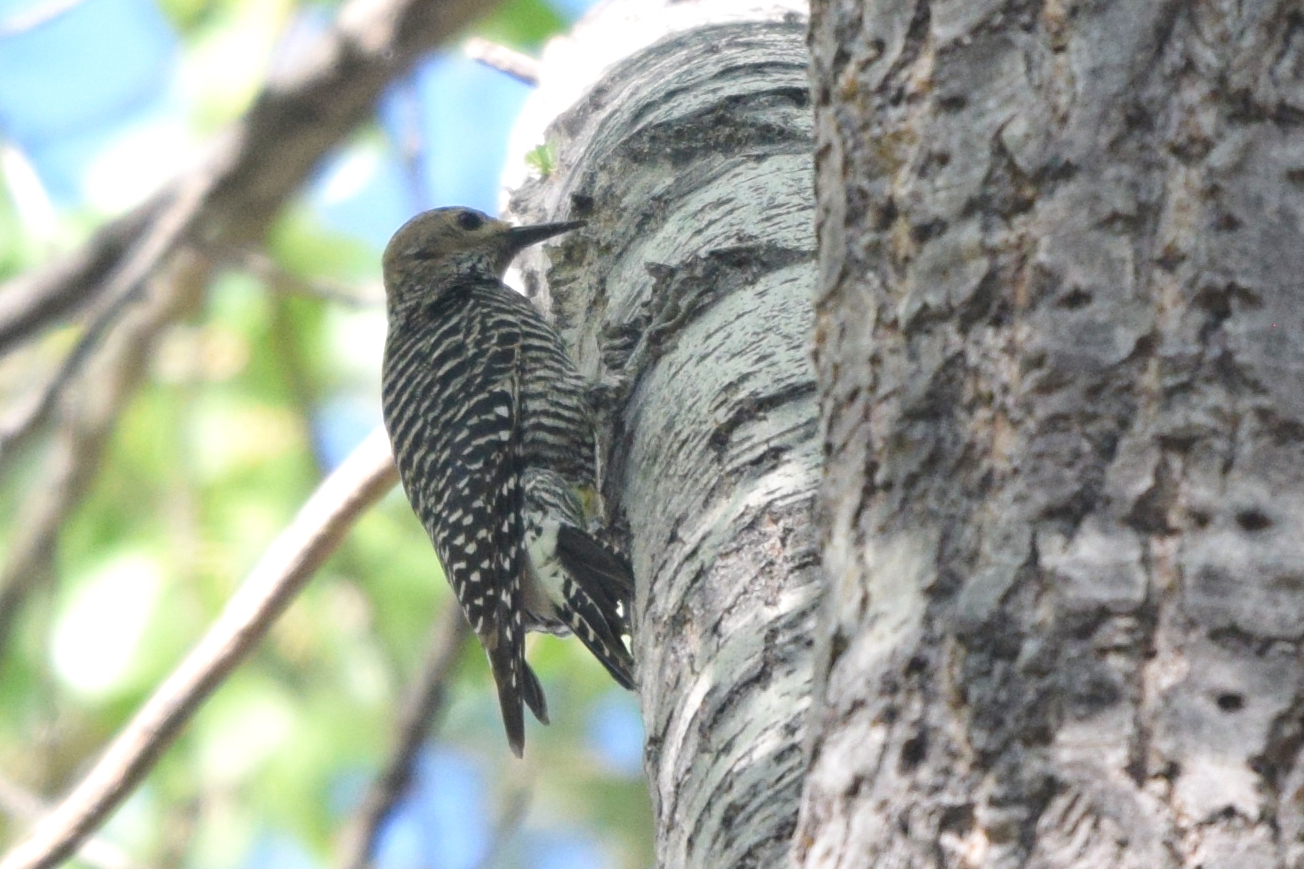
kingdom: Animalia
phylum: Chordata
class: Aves
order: Piciformes
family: Picidae
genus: Sphyrapicus
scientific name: Sphyrapicus thyroideus
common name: Williamson's sapsucker
